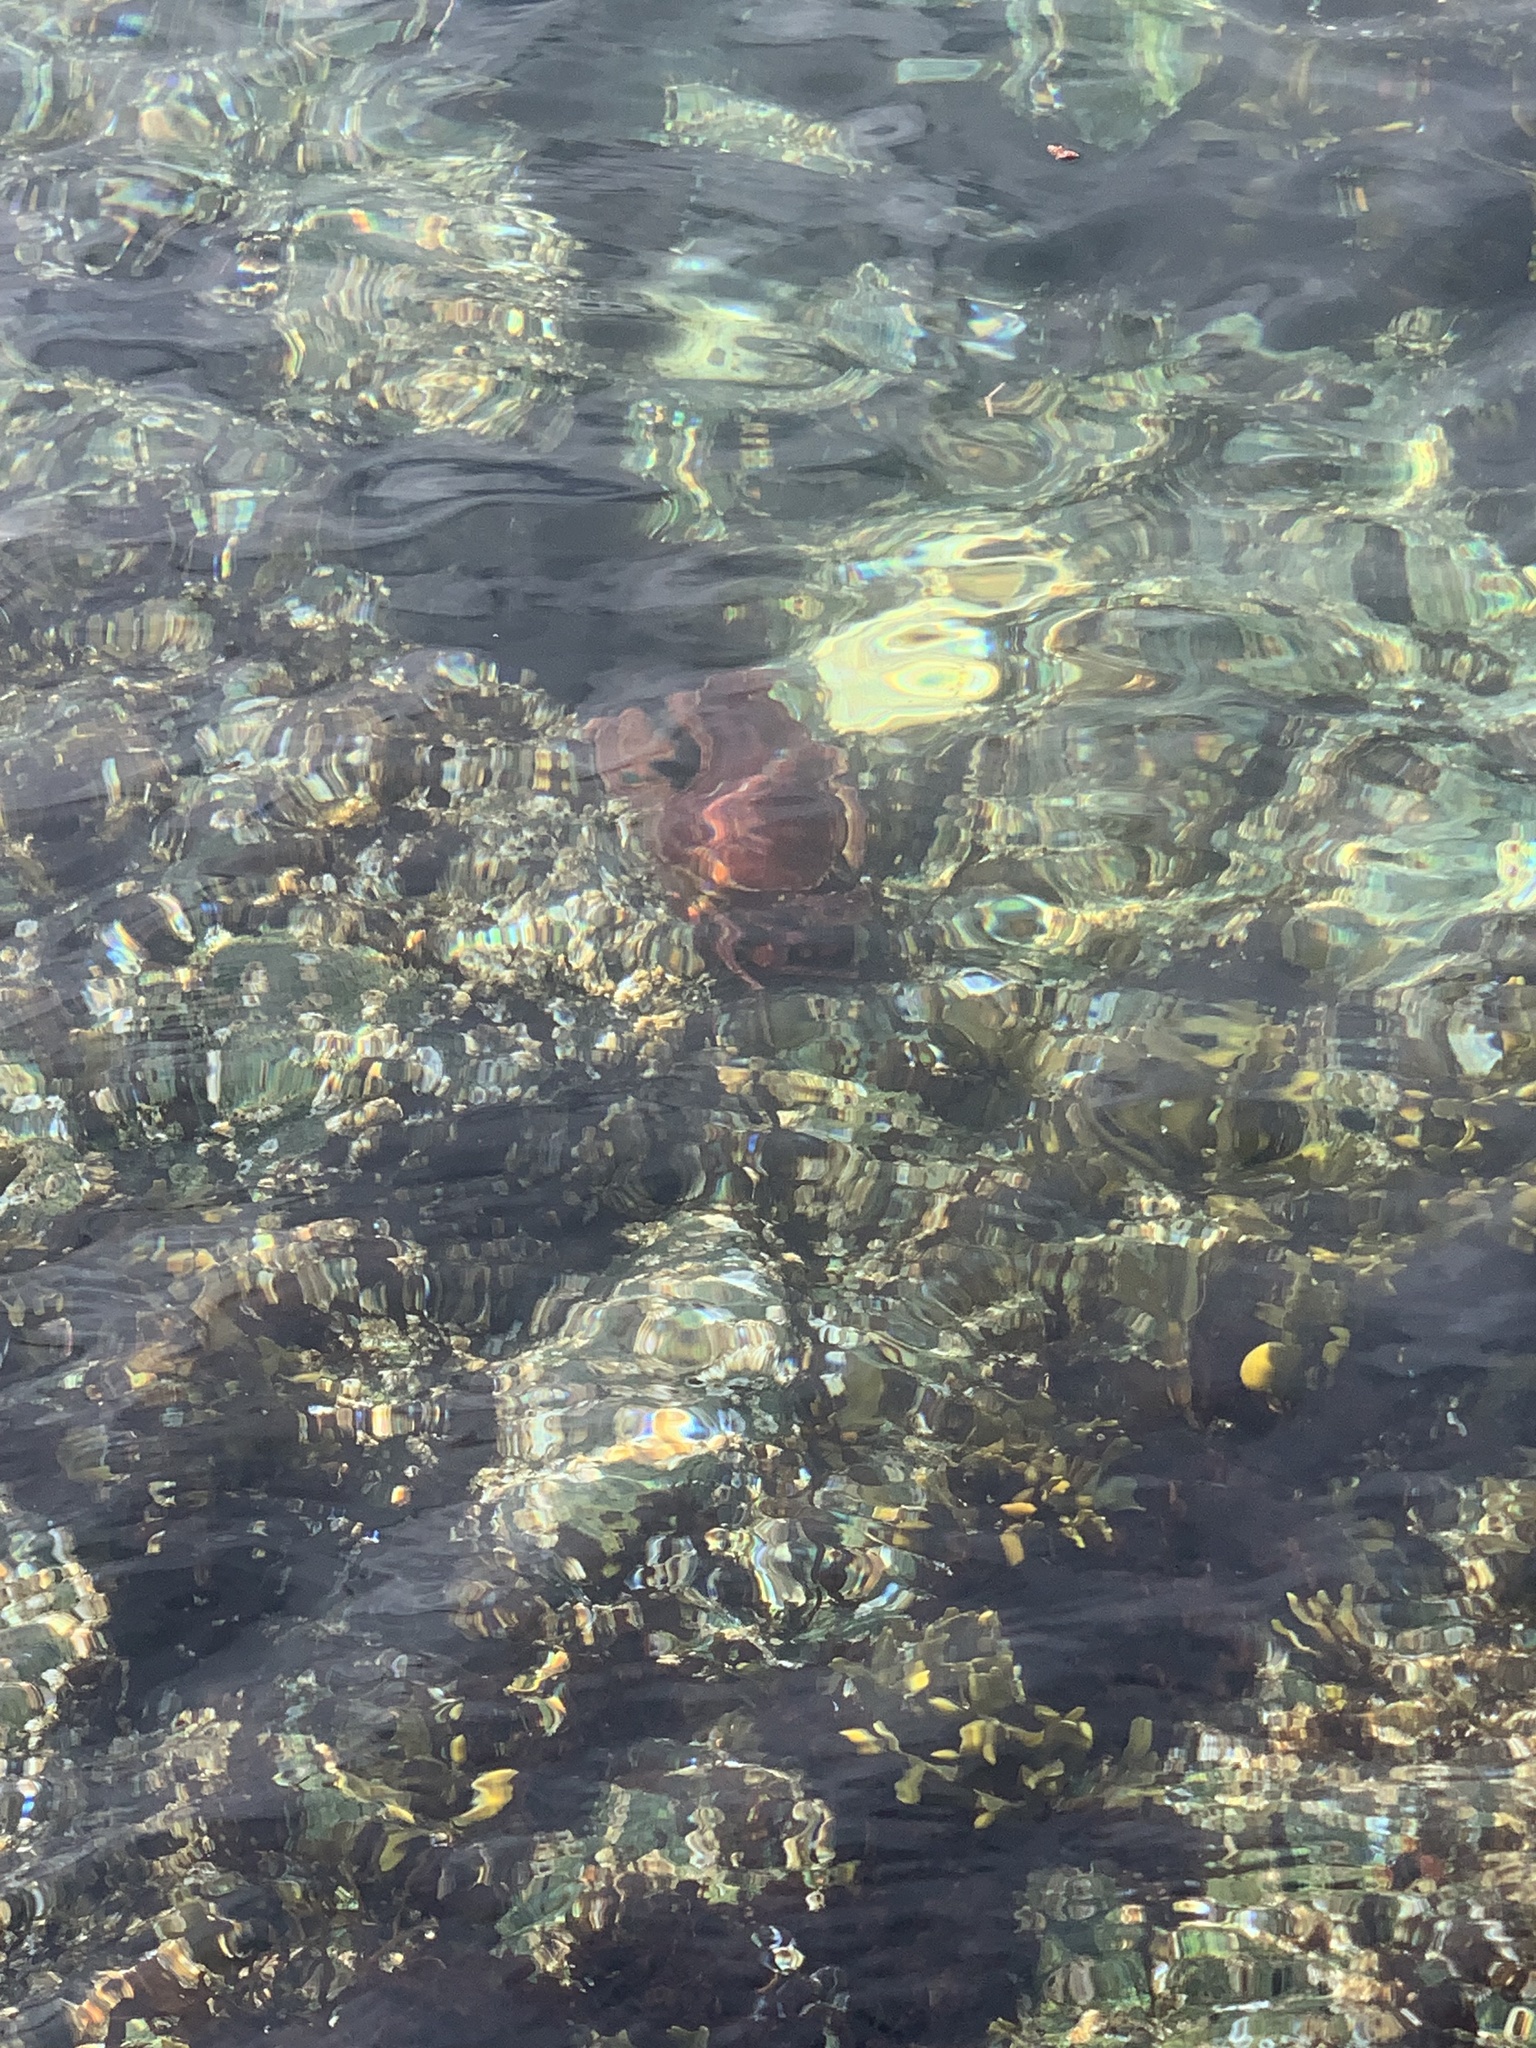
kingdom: Animalia
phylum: Arthropoda
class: Malacostraca
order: Decapoda
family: Cancridae
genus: Cancer
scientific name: Cancer productus
